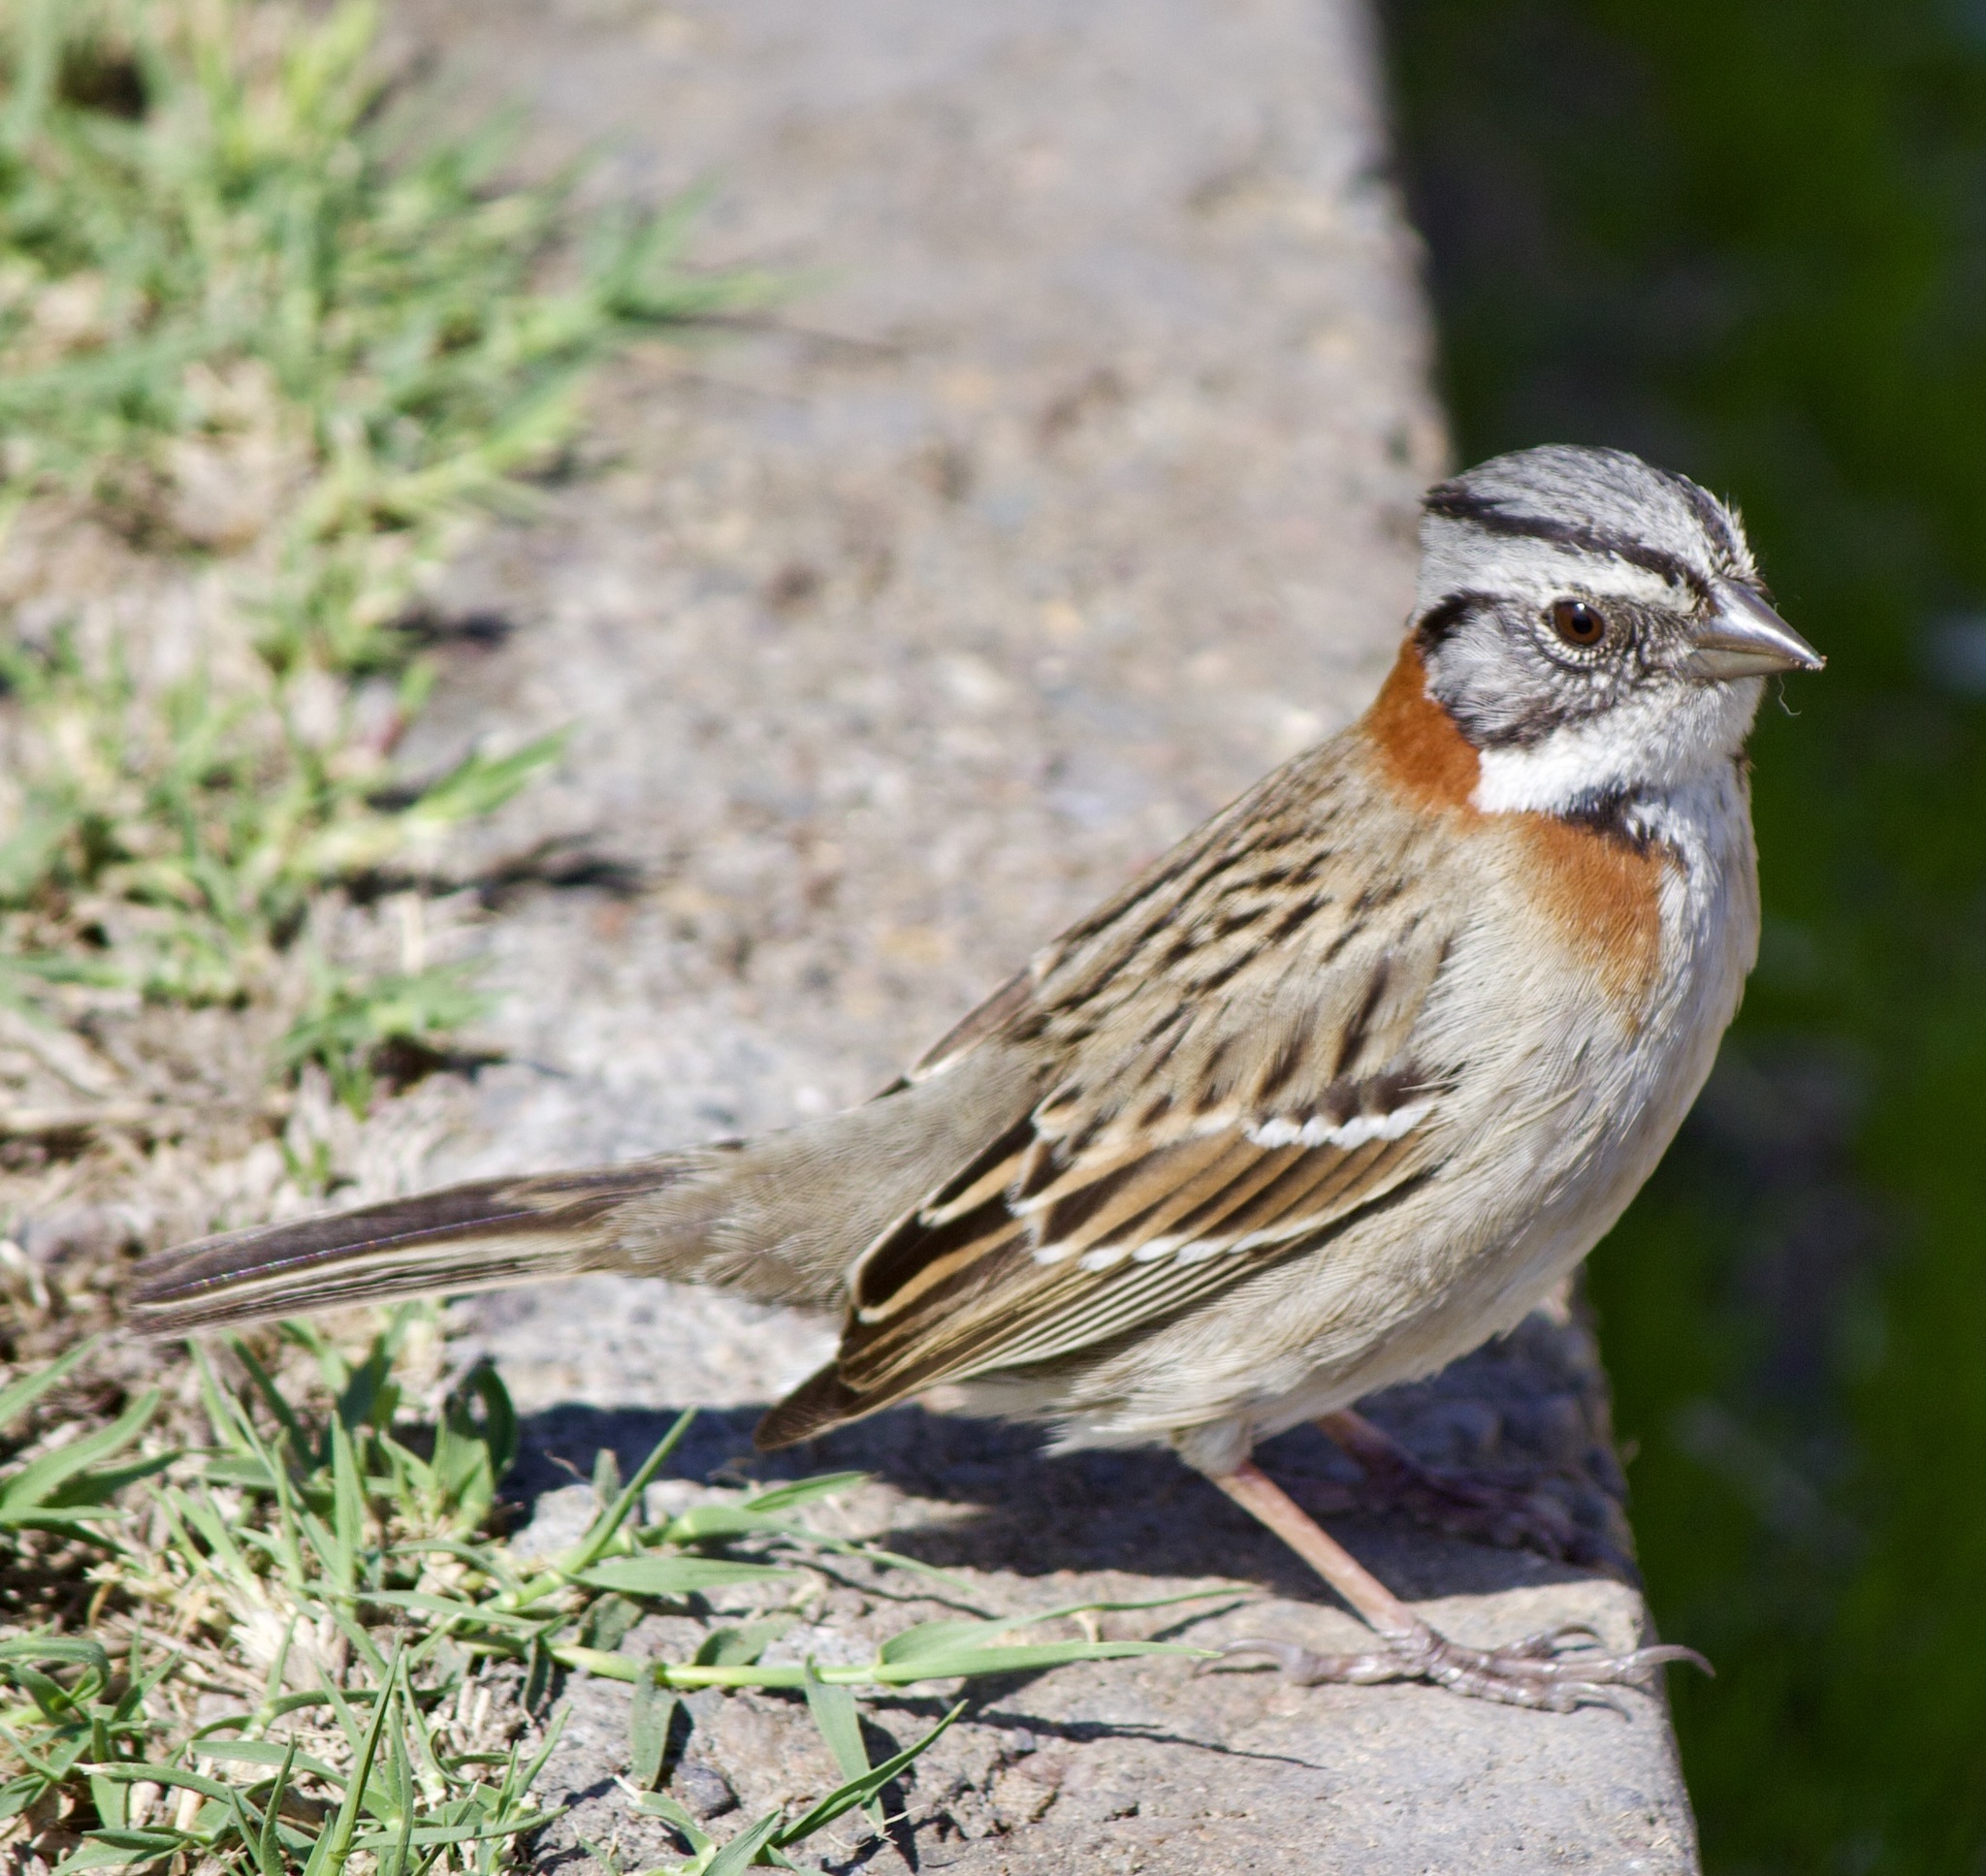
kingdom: Animalia
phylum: Chordata
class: Aves
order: Passeriformes
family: Passerellidae
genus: Zonotrichia
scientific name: Zonotrichia capensis
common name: Rufous-collared sparrow
